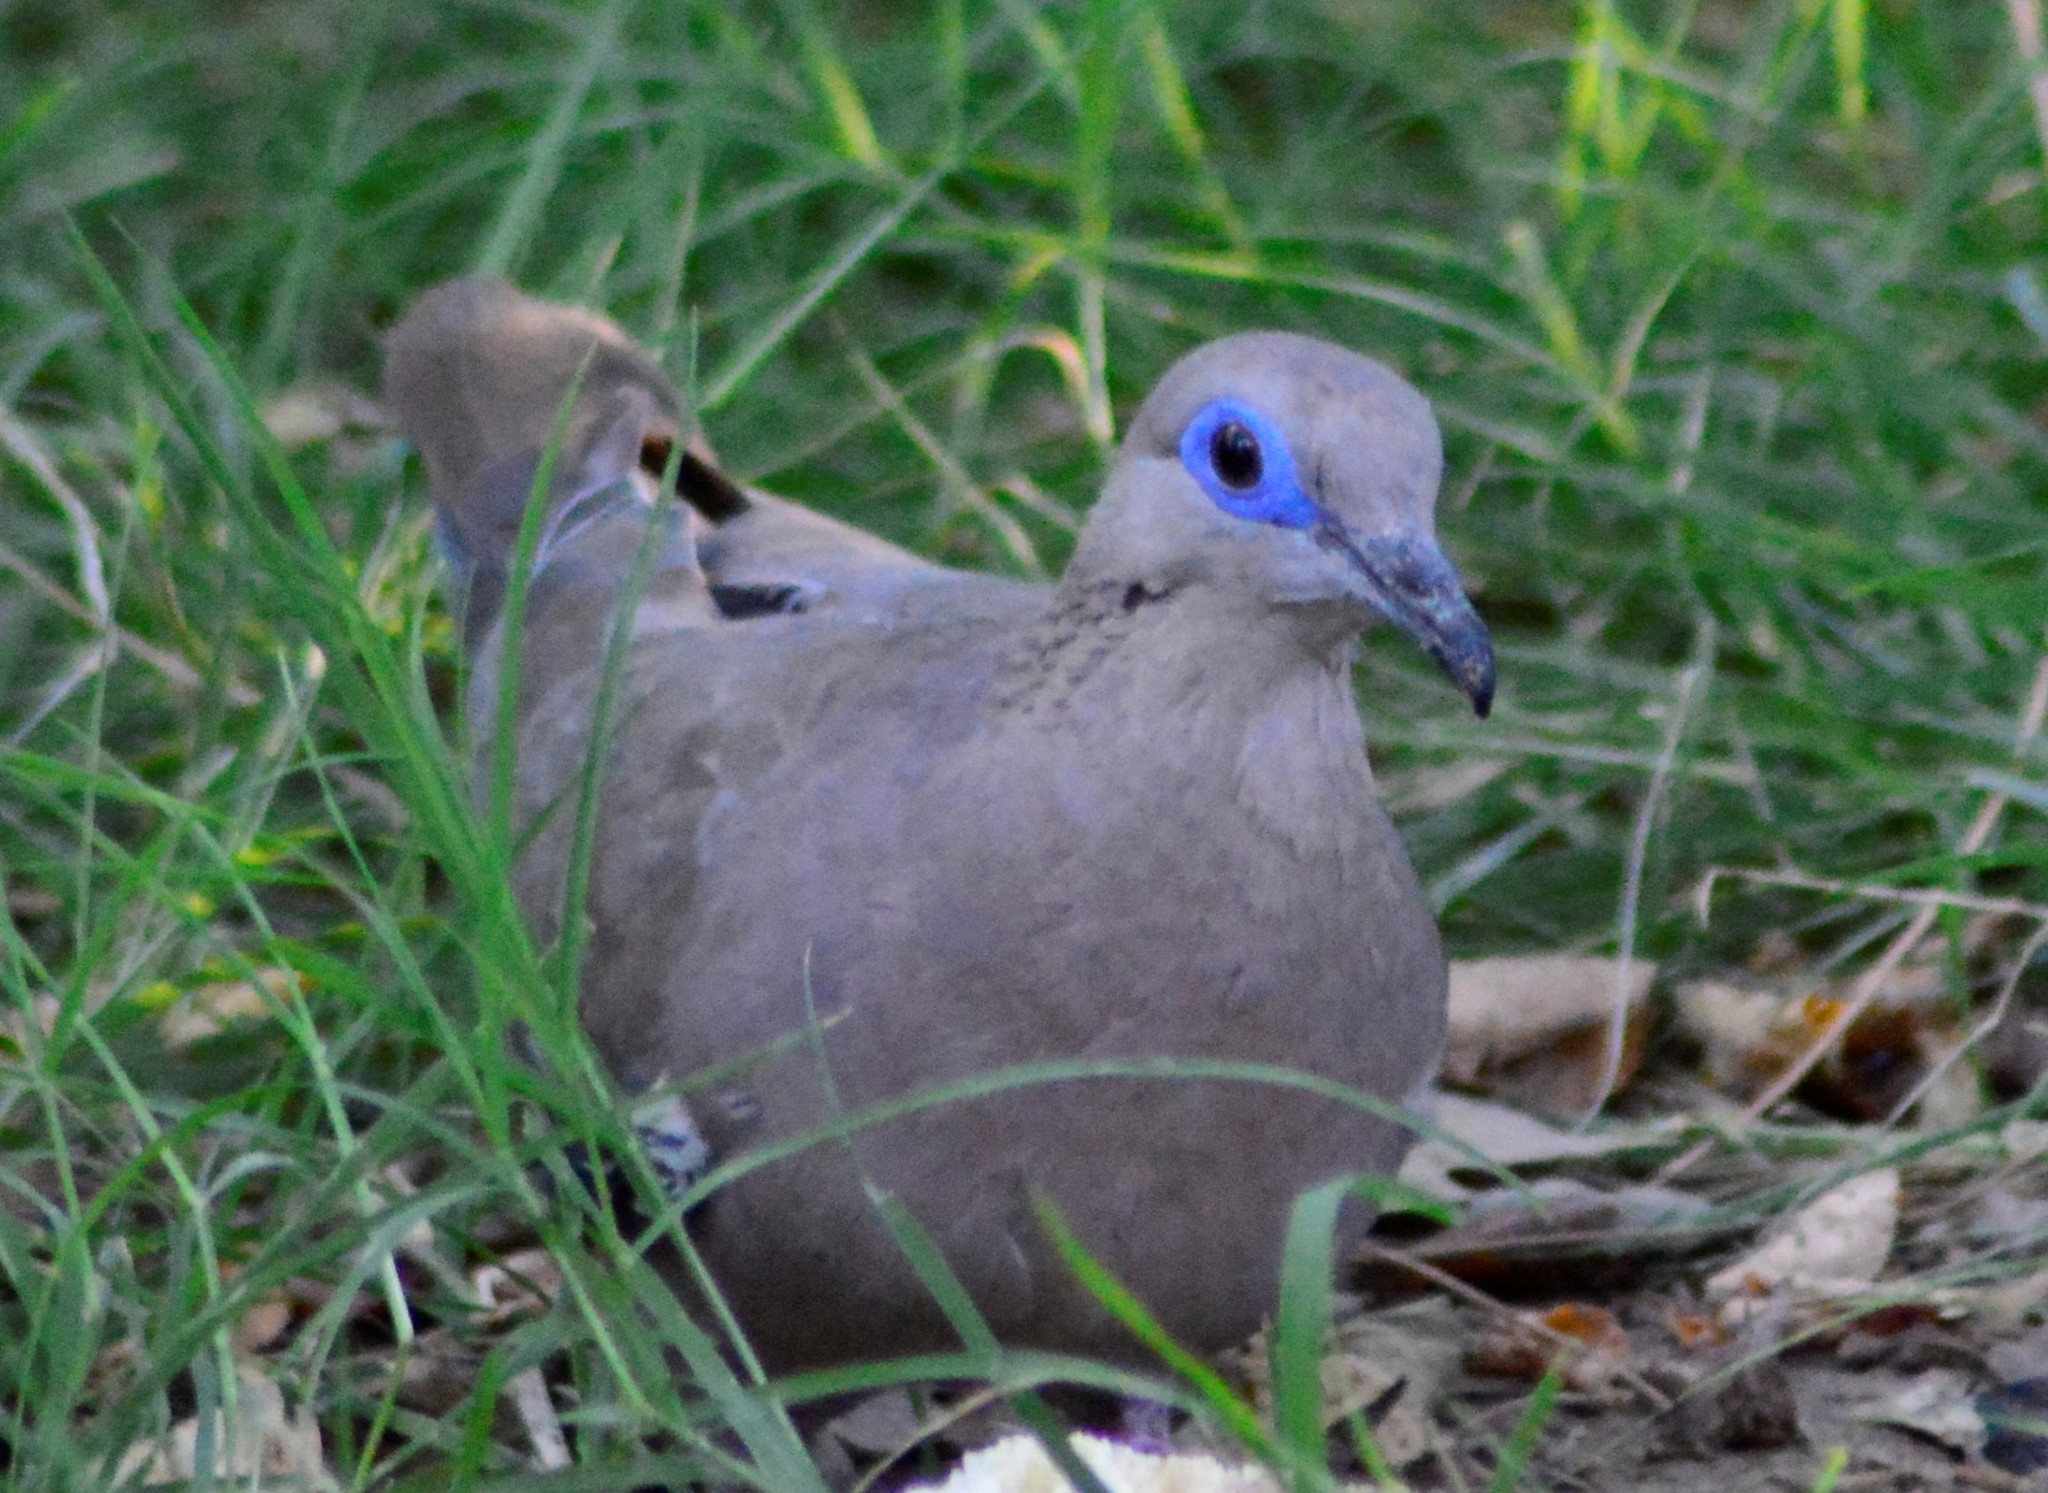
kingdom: Animalia
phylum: Chordata
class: Aves
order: Columbiformes
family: Columbidae
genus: Zenaida
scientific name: Zenaida meloda
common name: West peruvian dove
